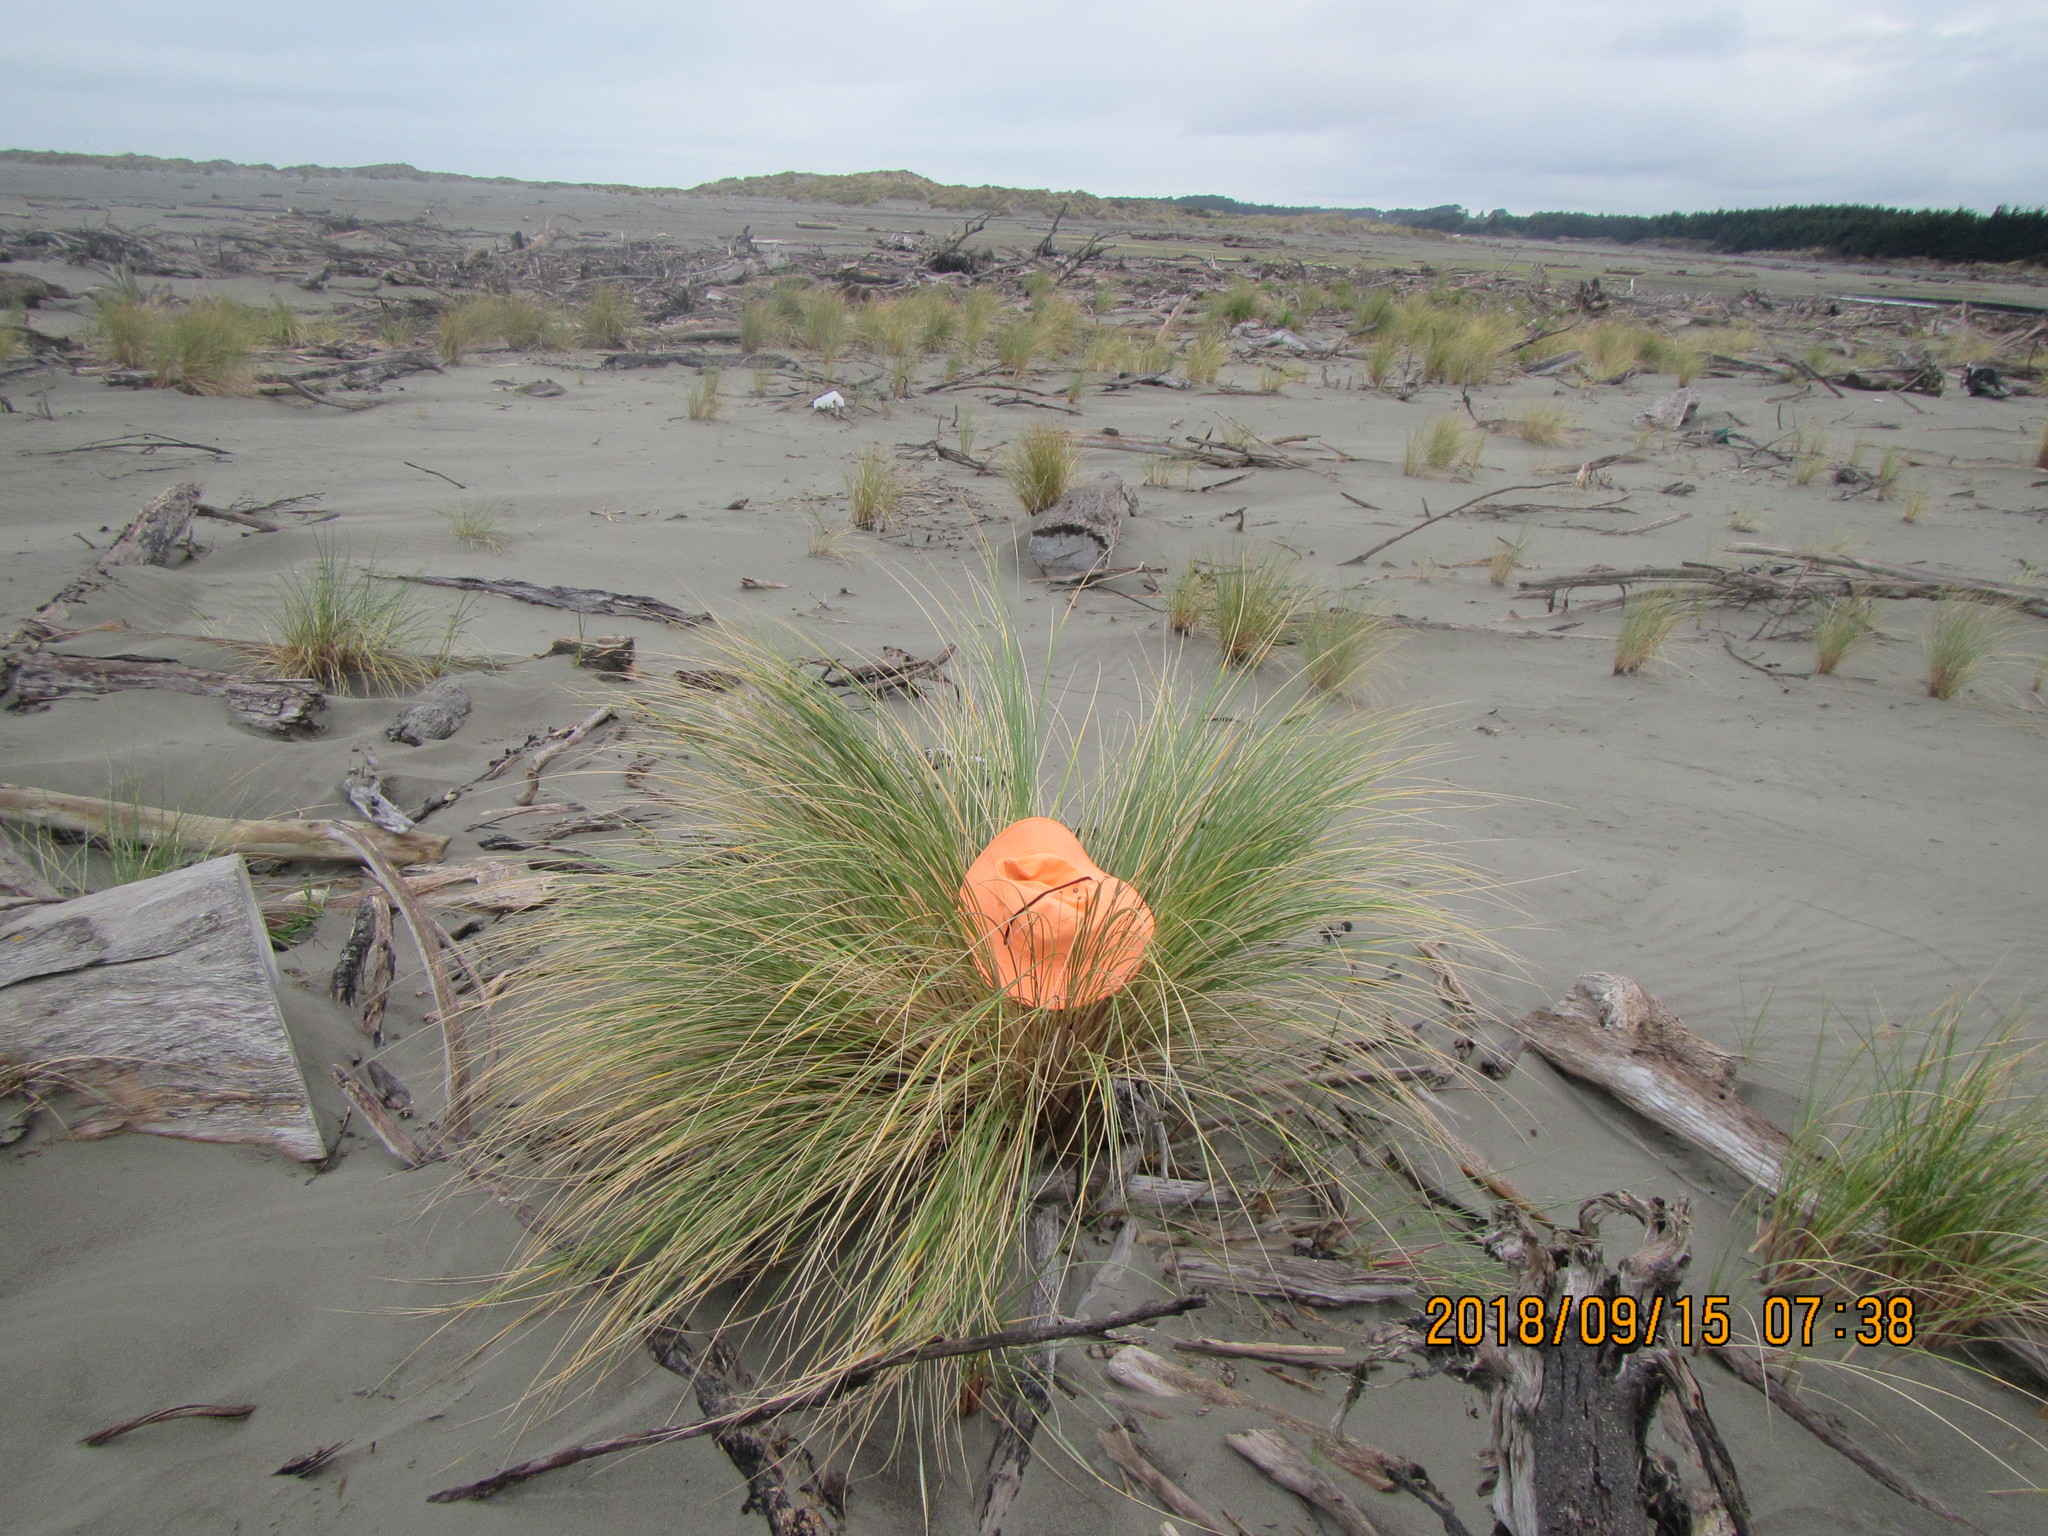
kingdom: Animalia
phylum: Arthropoda
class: Arachnida
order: Araneae
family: Theridiidae
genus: Steatoda
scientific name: Steatoda capensis
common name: Cobweb weaver
